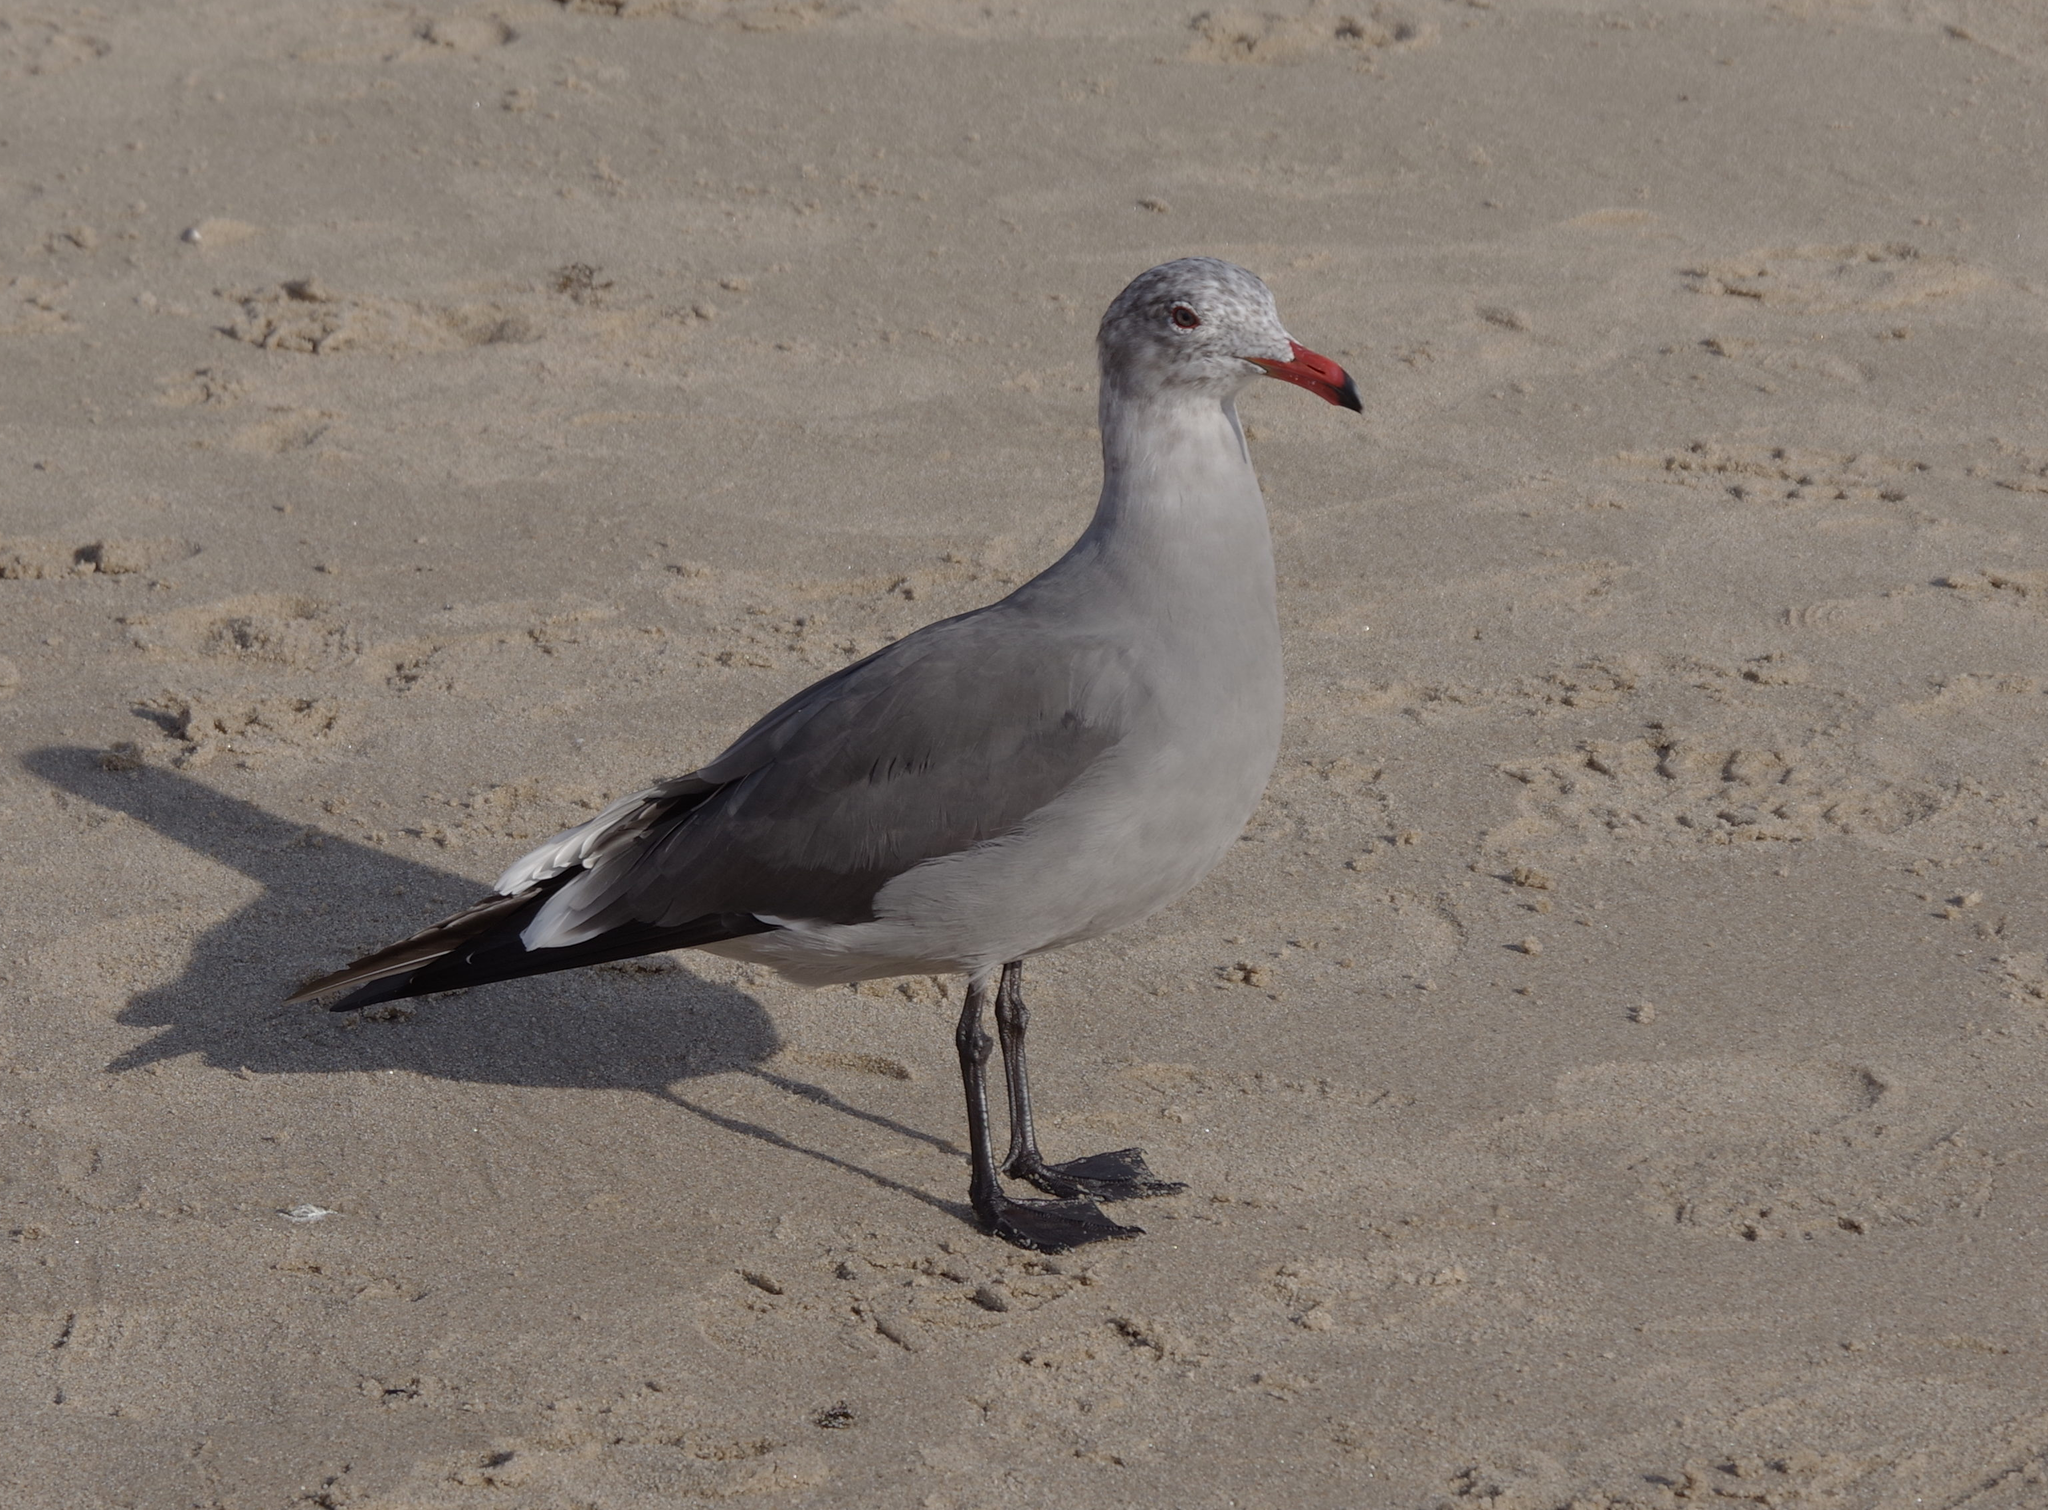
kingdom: Animalia
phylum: Chordata
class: Aves
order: Charadriiformes
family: Laridae
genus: Larus
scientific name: Larus heermanni
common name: Heermann's gull
